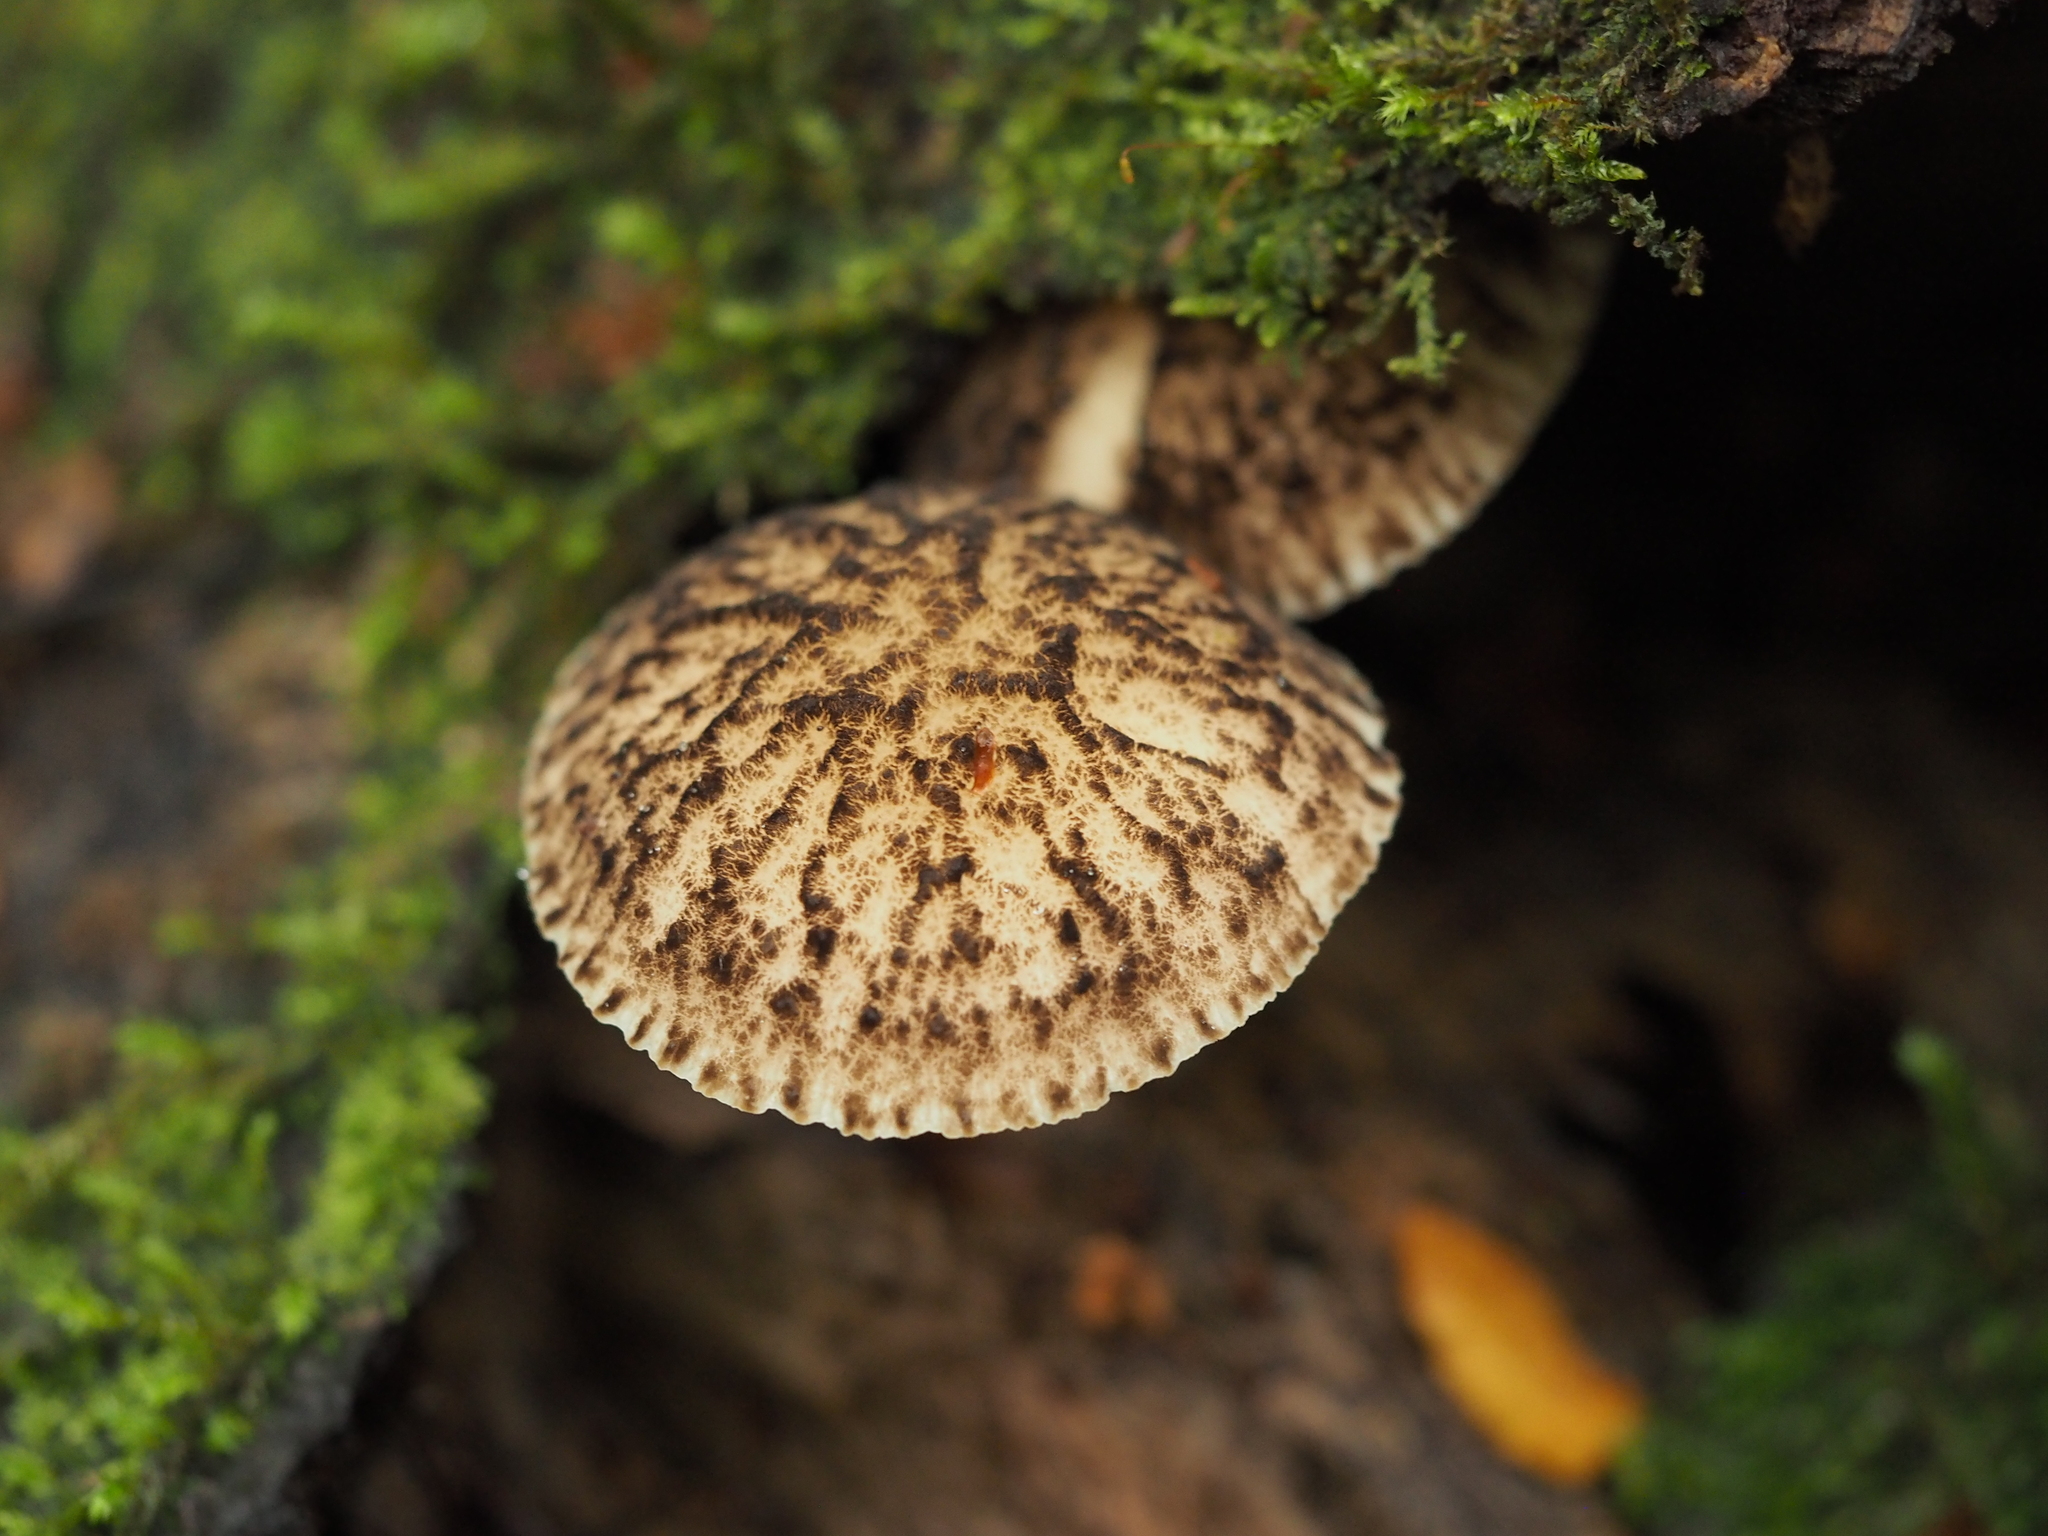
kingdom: Fungi
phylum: Basidiomycota
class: Agaricomycetes
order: Agaricales
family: Pluteaceae
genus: Pluteus
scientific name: Pluteus readiarum
